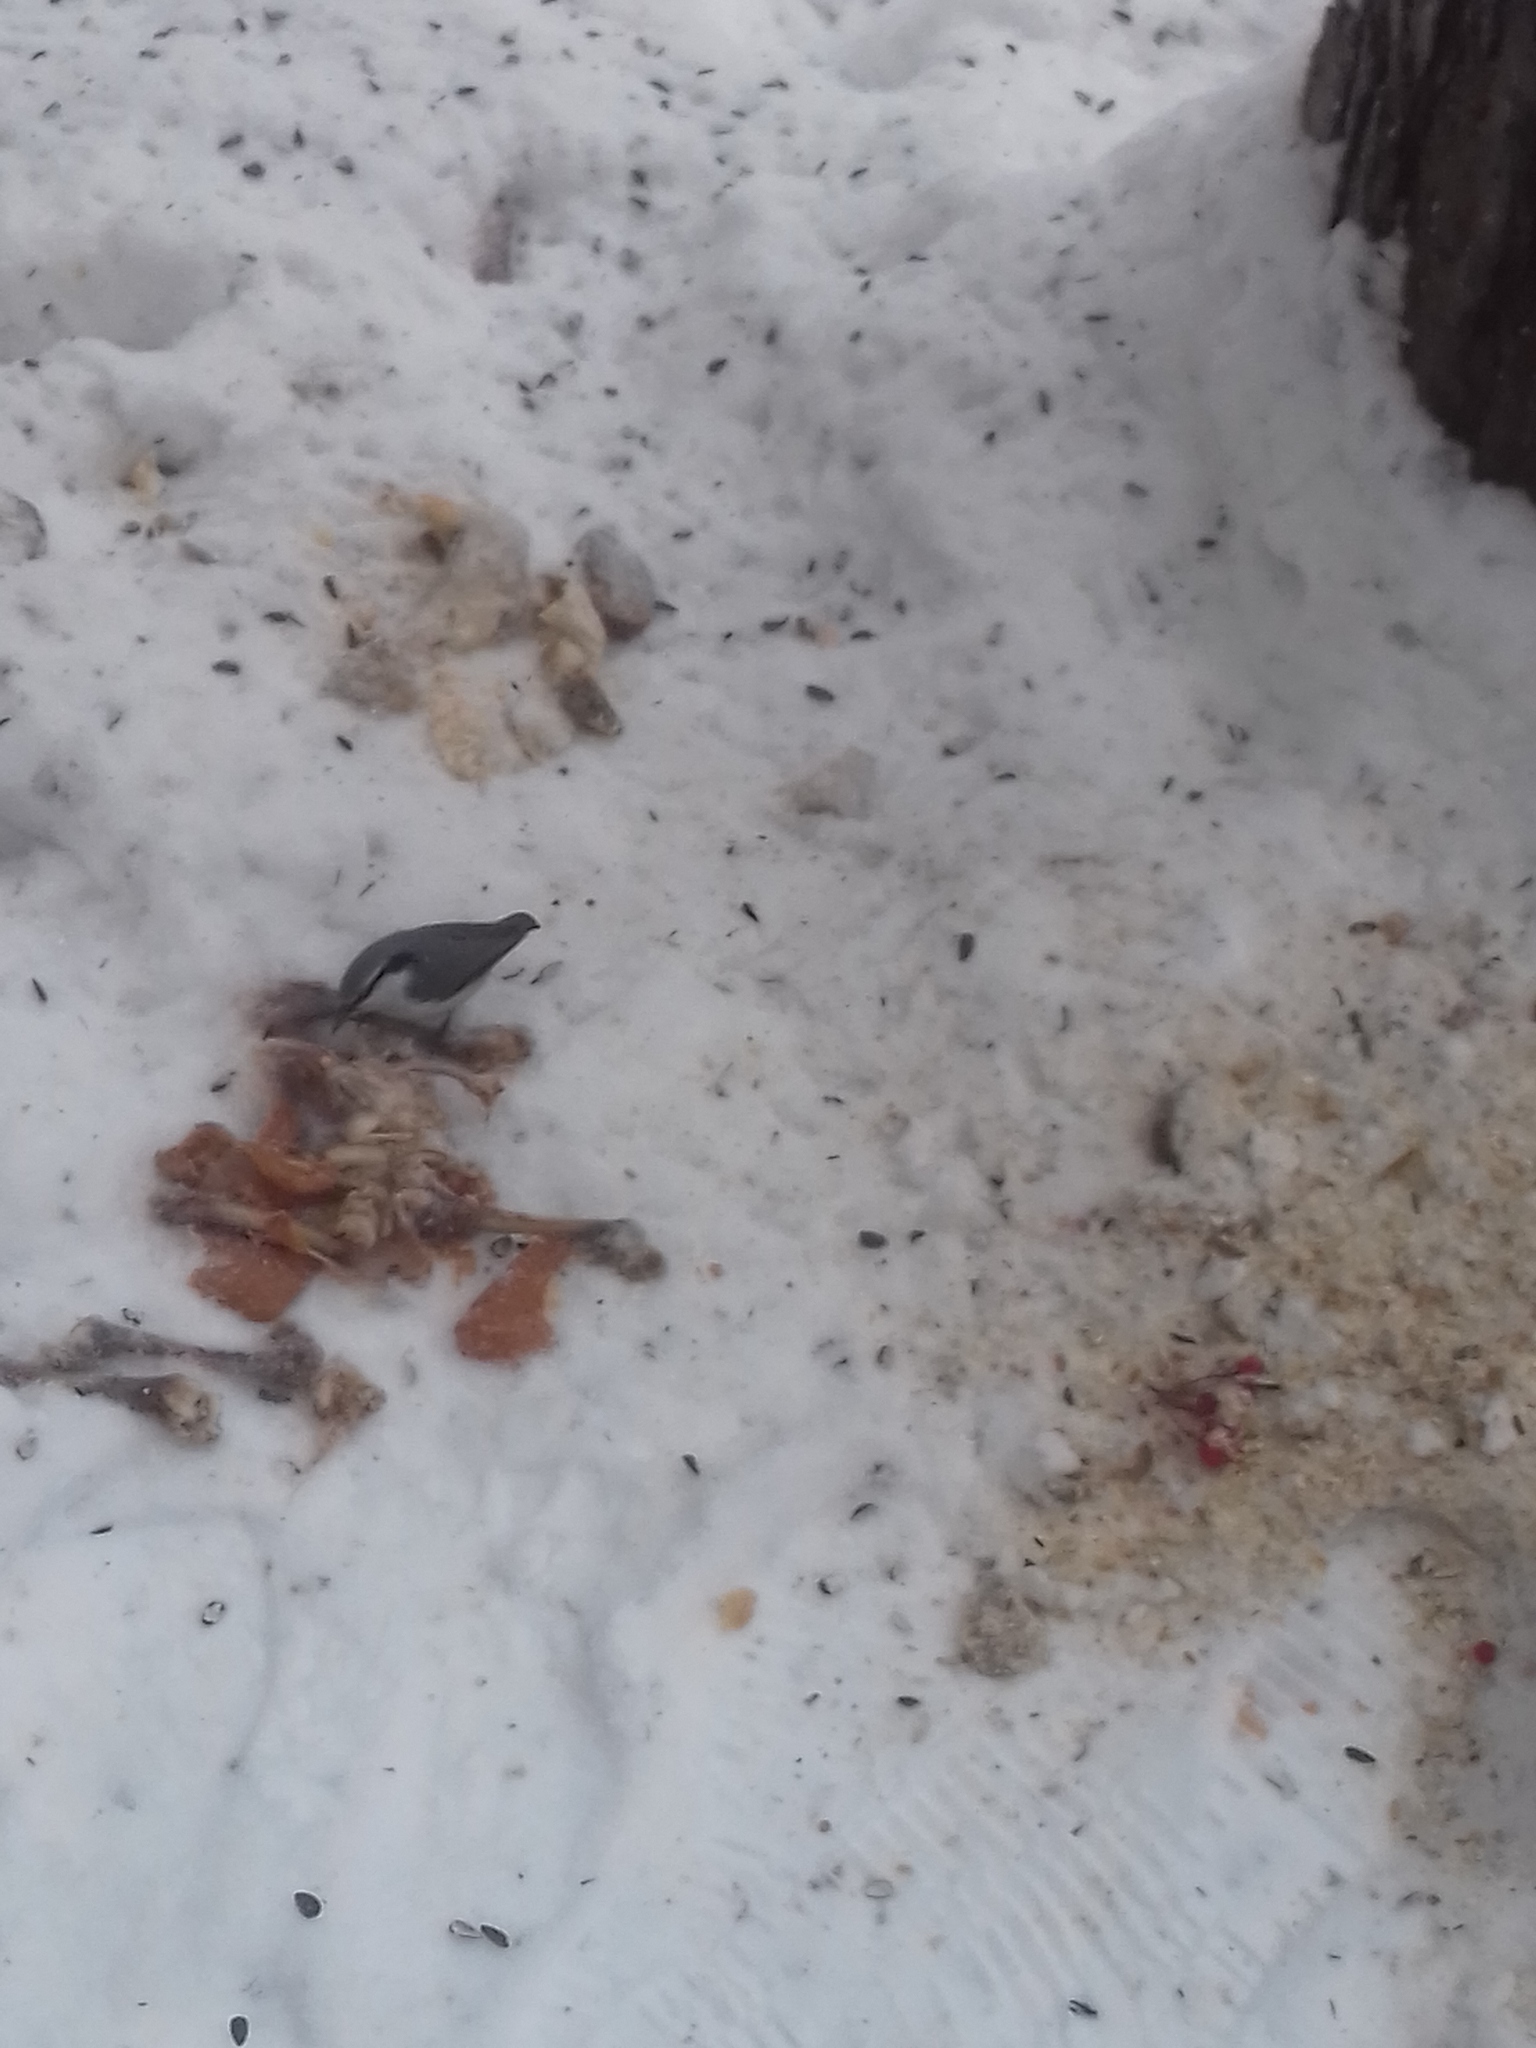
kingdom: Animalia
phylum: Chordata
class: Aves
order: Passeriformes
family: Sittidae
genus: Sitta
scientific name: Sitta europaea
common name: Eurasian nuthatch
